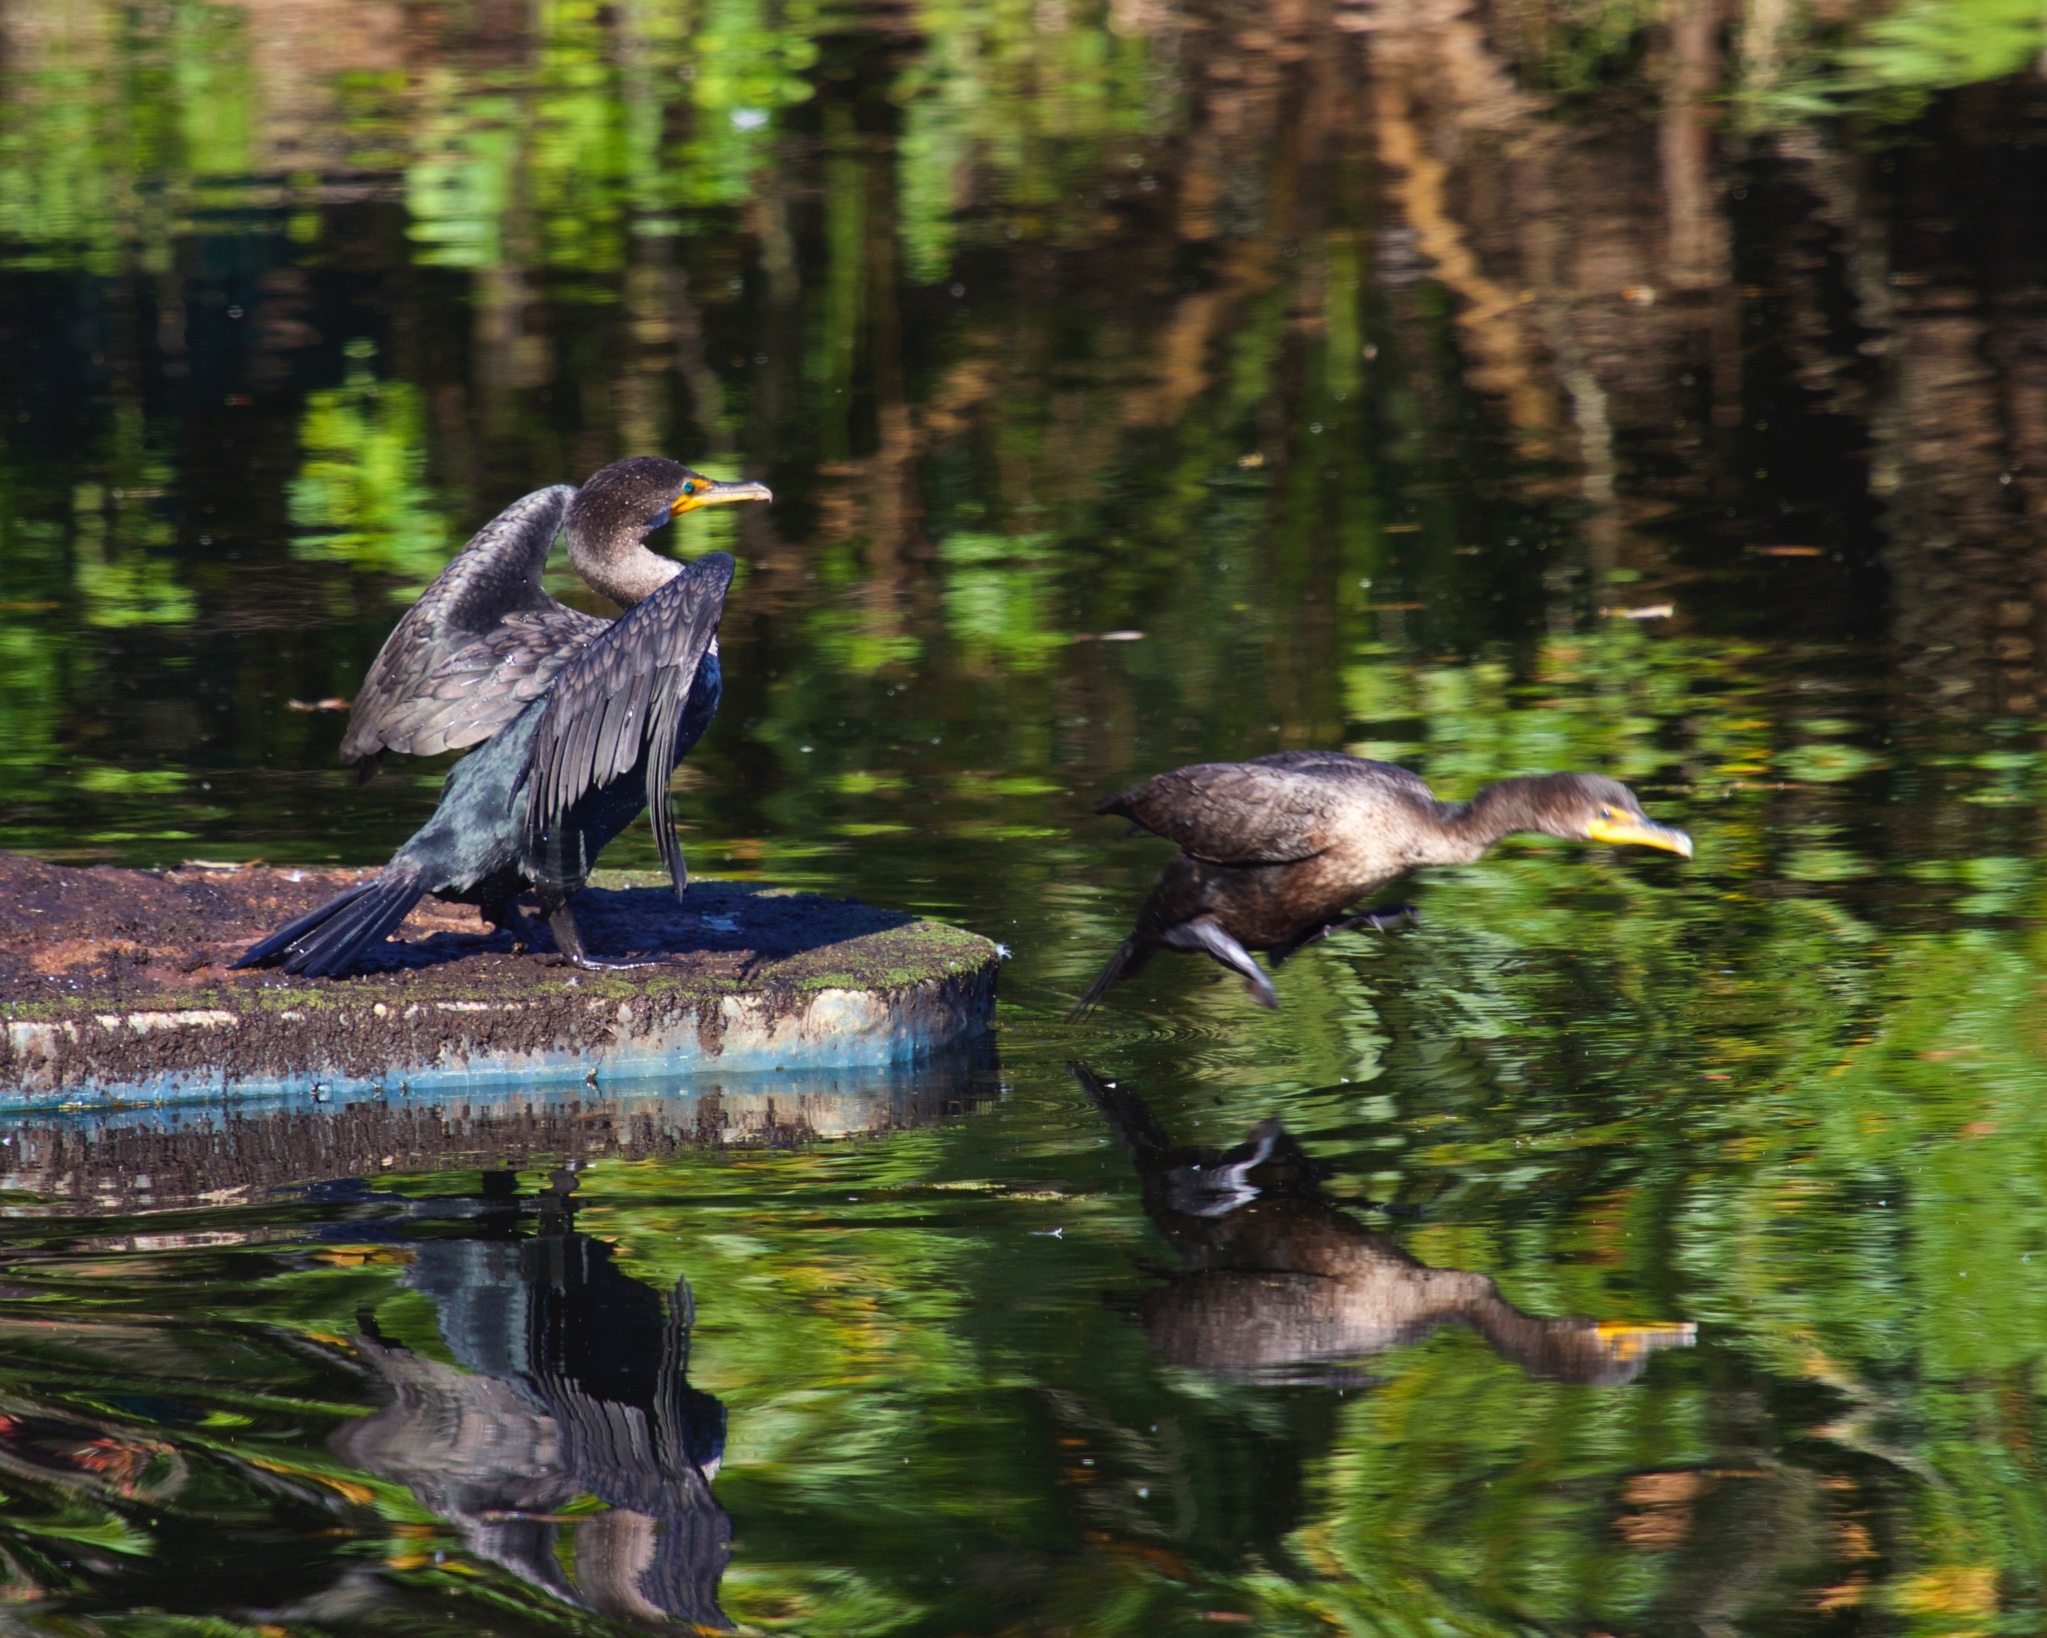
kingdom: Animalia
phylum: Chordata
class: Aves
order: Suliformes
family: Phalacrocoracidae
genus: Phalacrocorax
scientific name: Phalacrocorax auritus
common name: Double-crested cormorant
